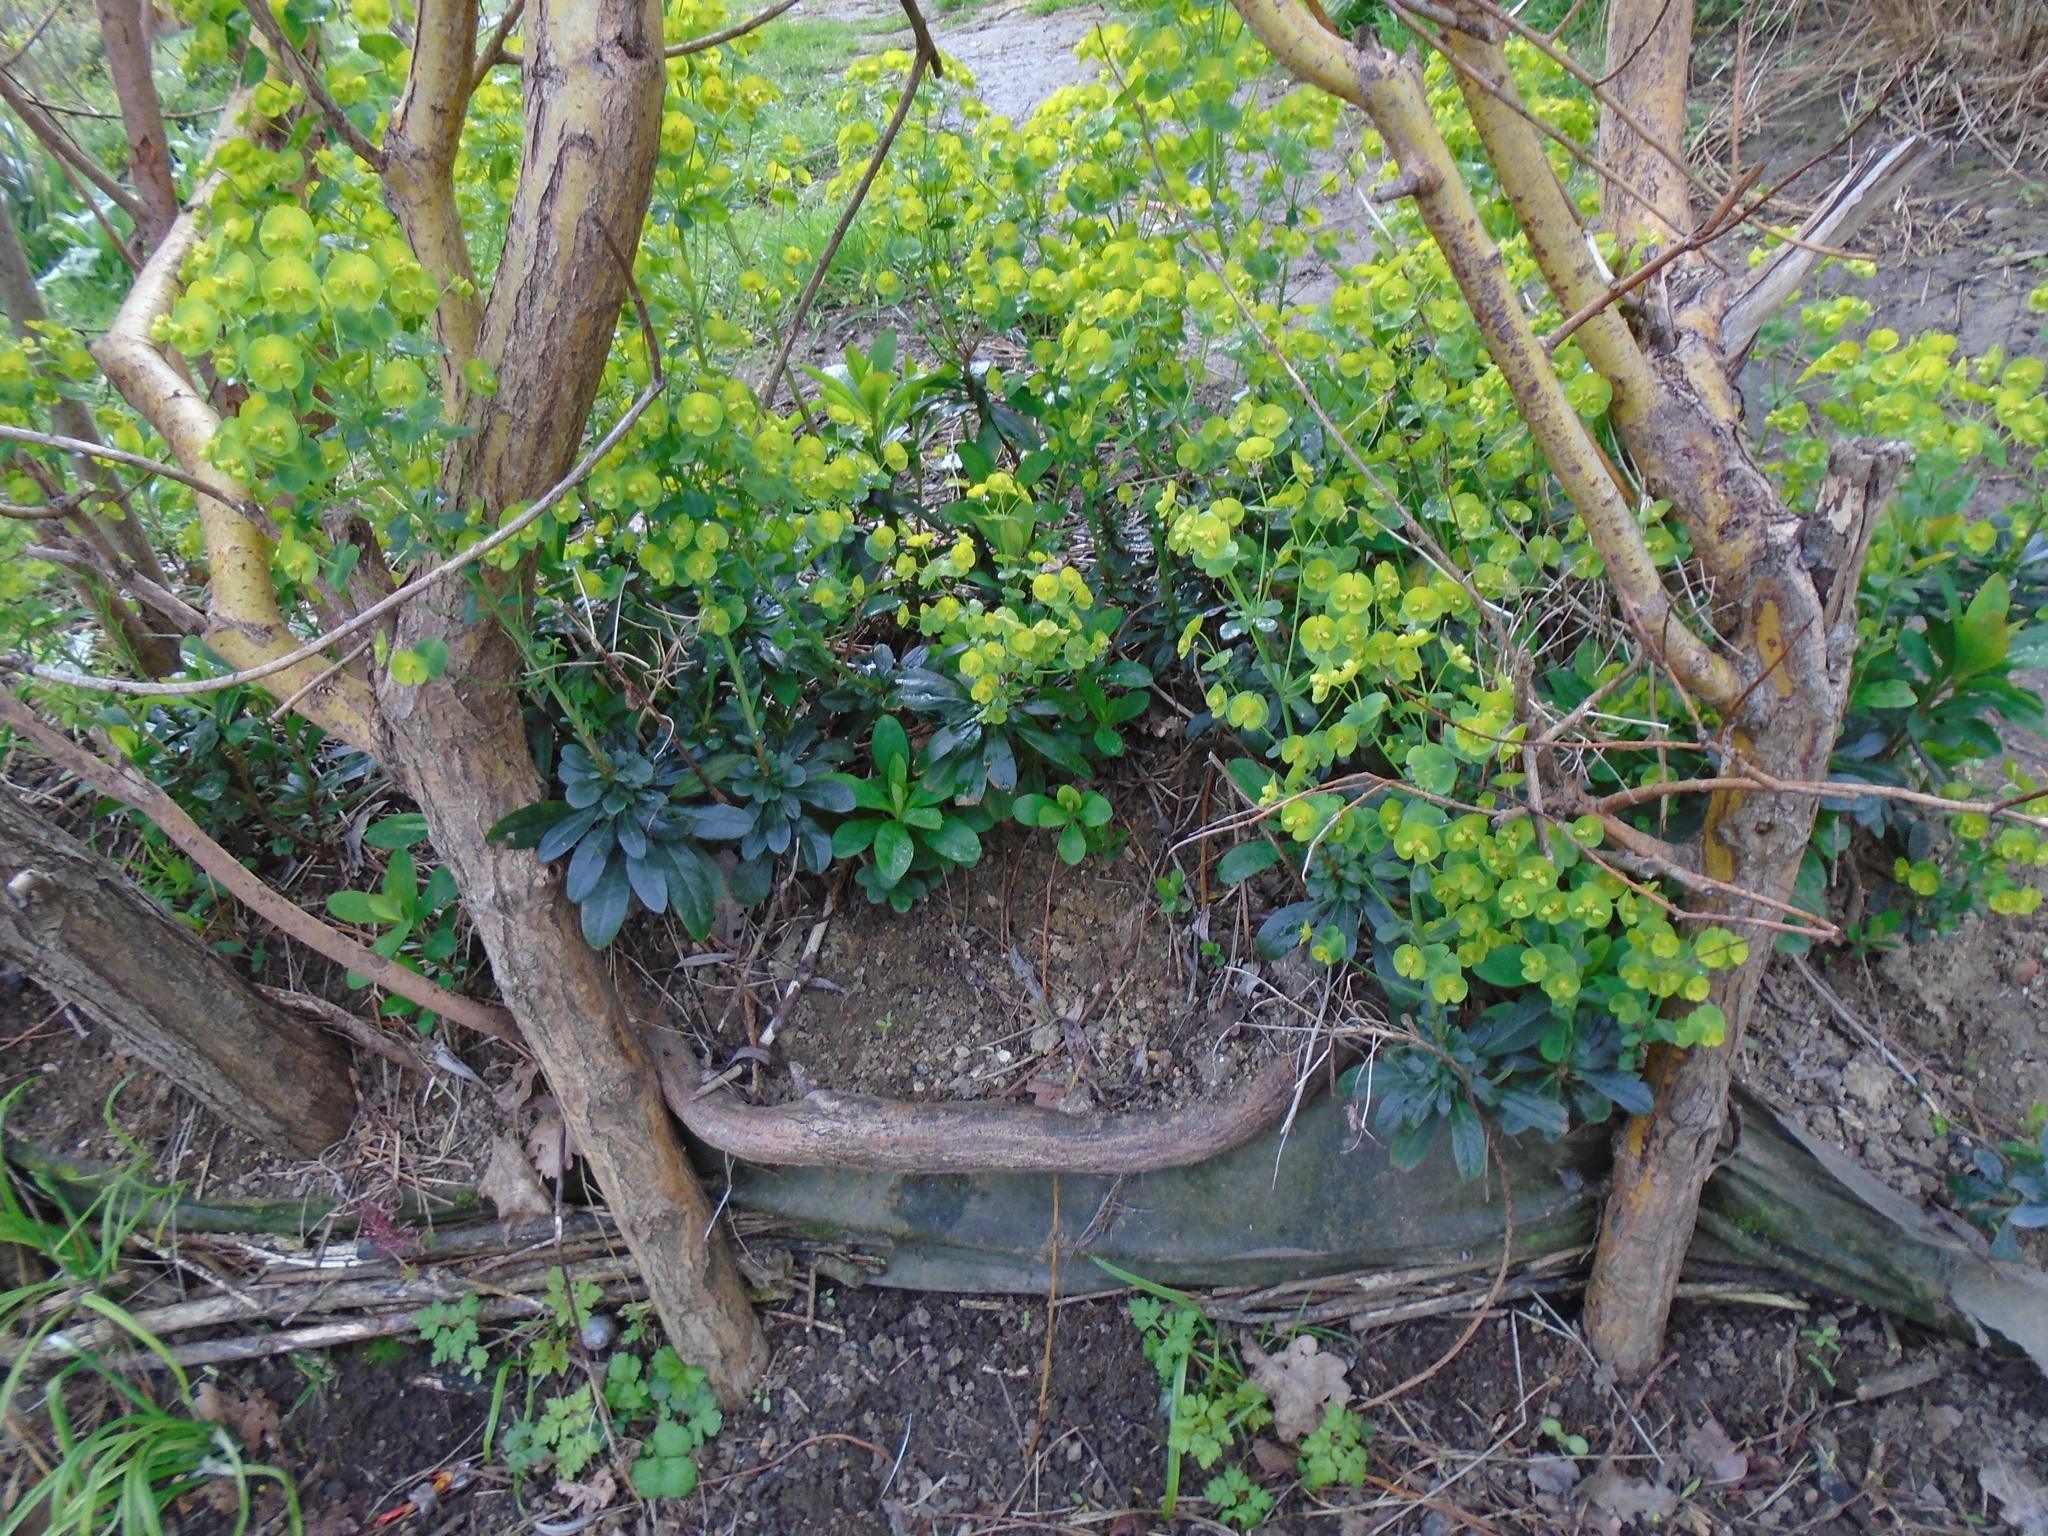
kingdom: Plantae
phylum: Tracheophyta
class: Magnoliopsida
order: Malpighiales
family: Euphorbiaceae
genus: Euphorbia
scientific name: Euphorbia amygdaloides
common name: Wood spurge
